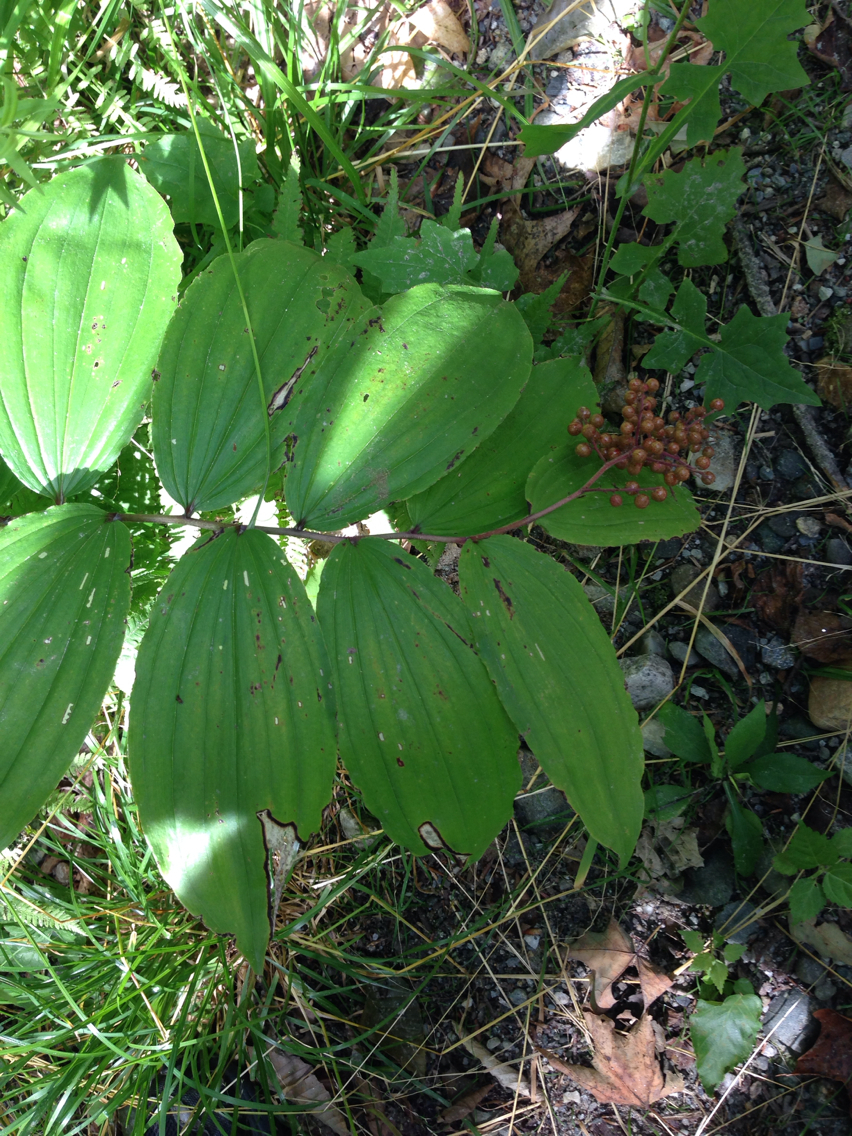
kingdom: Plantae
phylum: Tracheophyta
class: Liliopsida
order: Asparagales
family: Asparagaceae
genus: Maianthemum
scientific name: Maianthemum racemosum
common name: False spikenard
